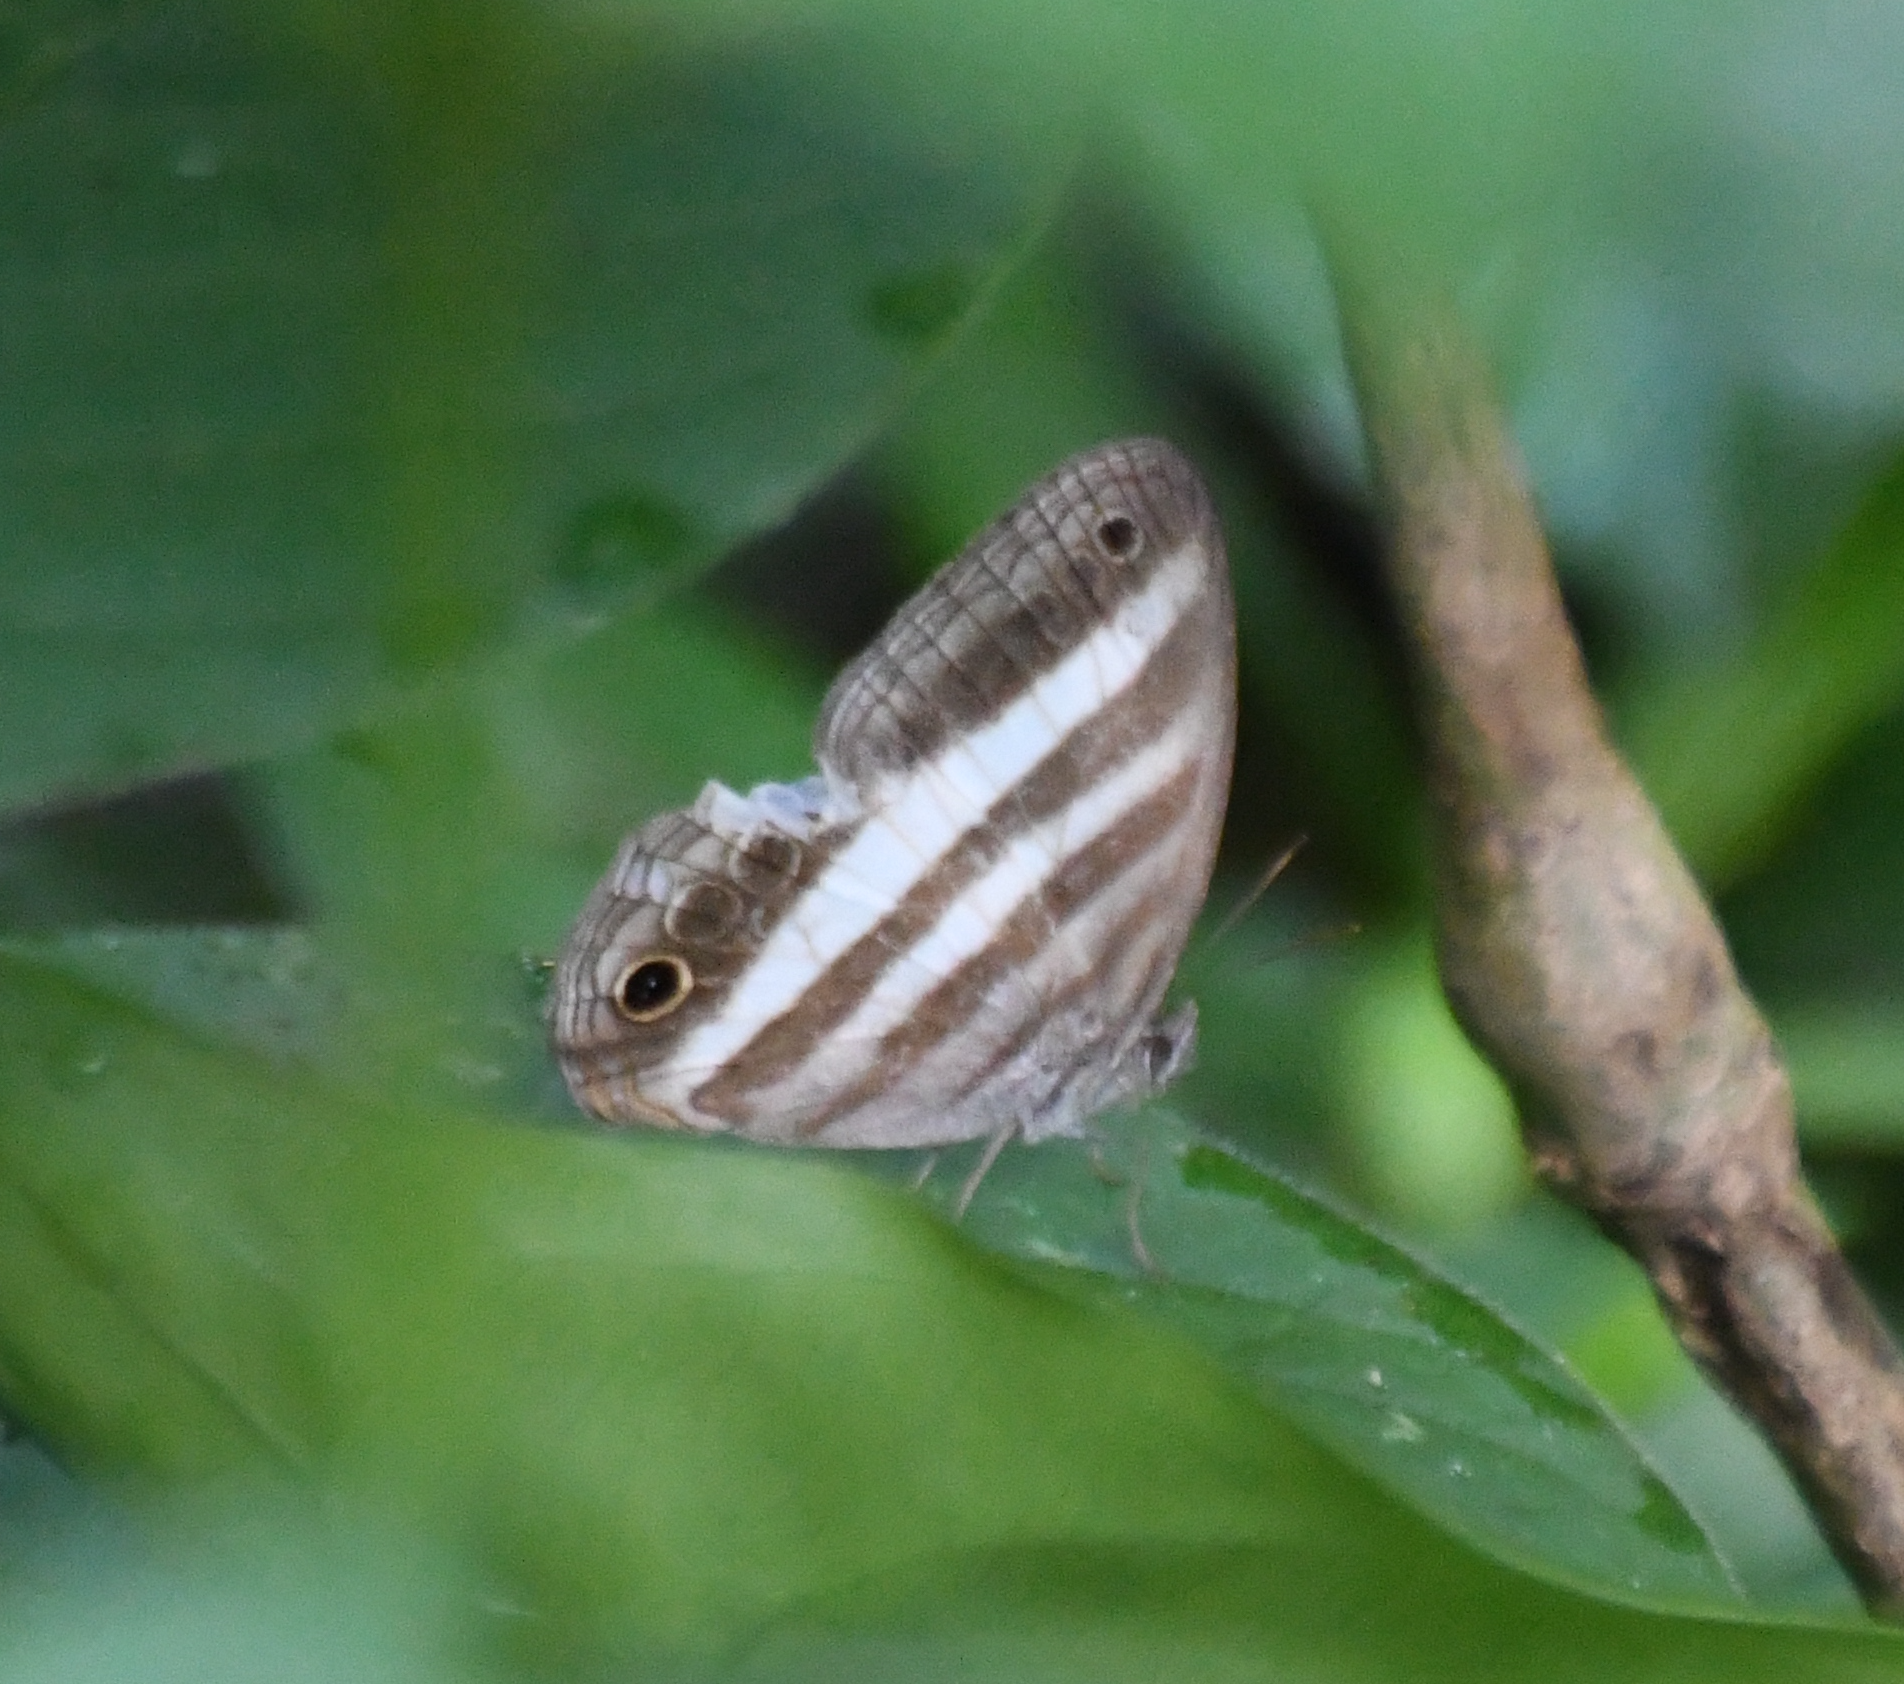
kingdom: Animalia
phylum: Arthropoda
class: Insecta
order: Lepidoptera
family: Nymphalidae
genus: Pareuptychia
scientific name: Pareuptychia hesione
